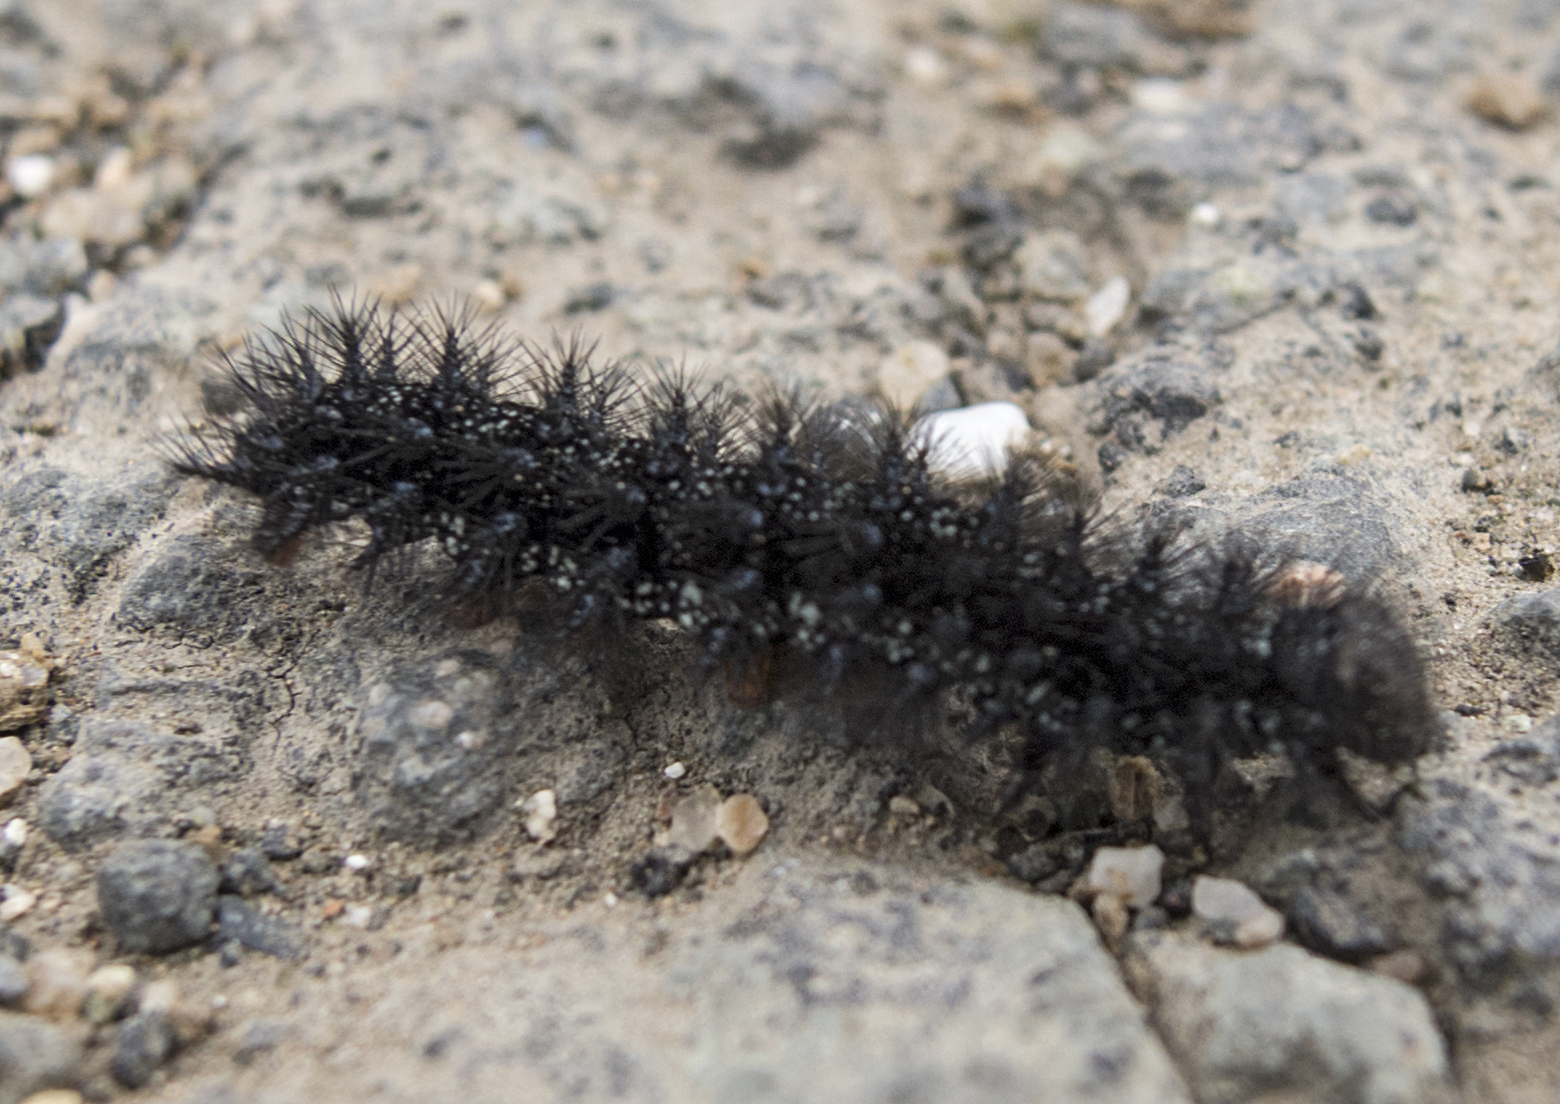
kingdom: Animalia
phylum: Arthropoda
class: Insecta
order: Lepidoptera
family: Nymphalidae
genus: Euphydryas
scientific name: Euphydryas aurinia
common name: Marsh fritillary
